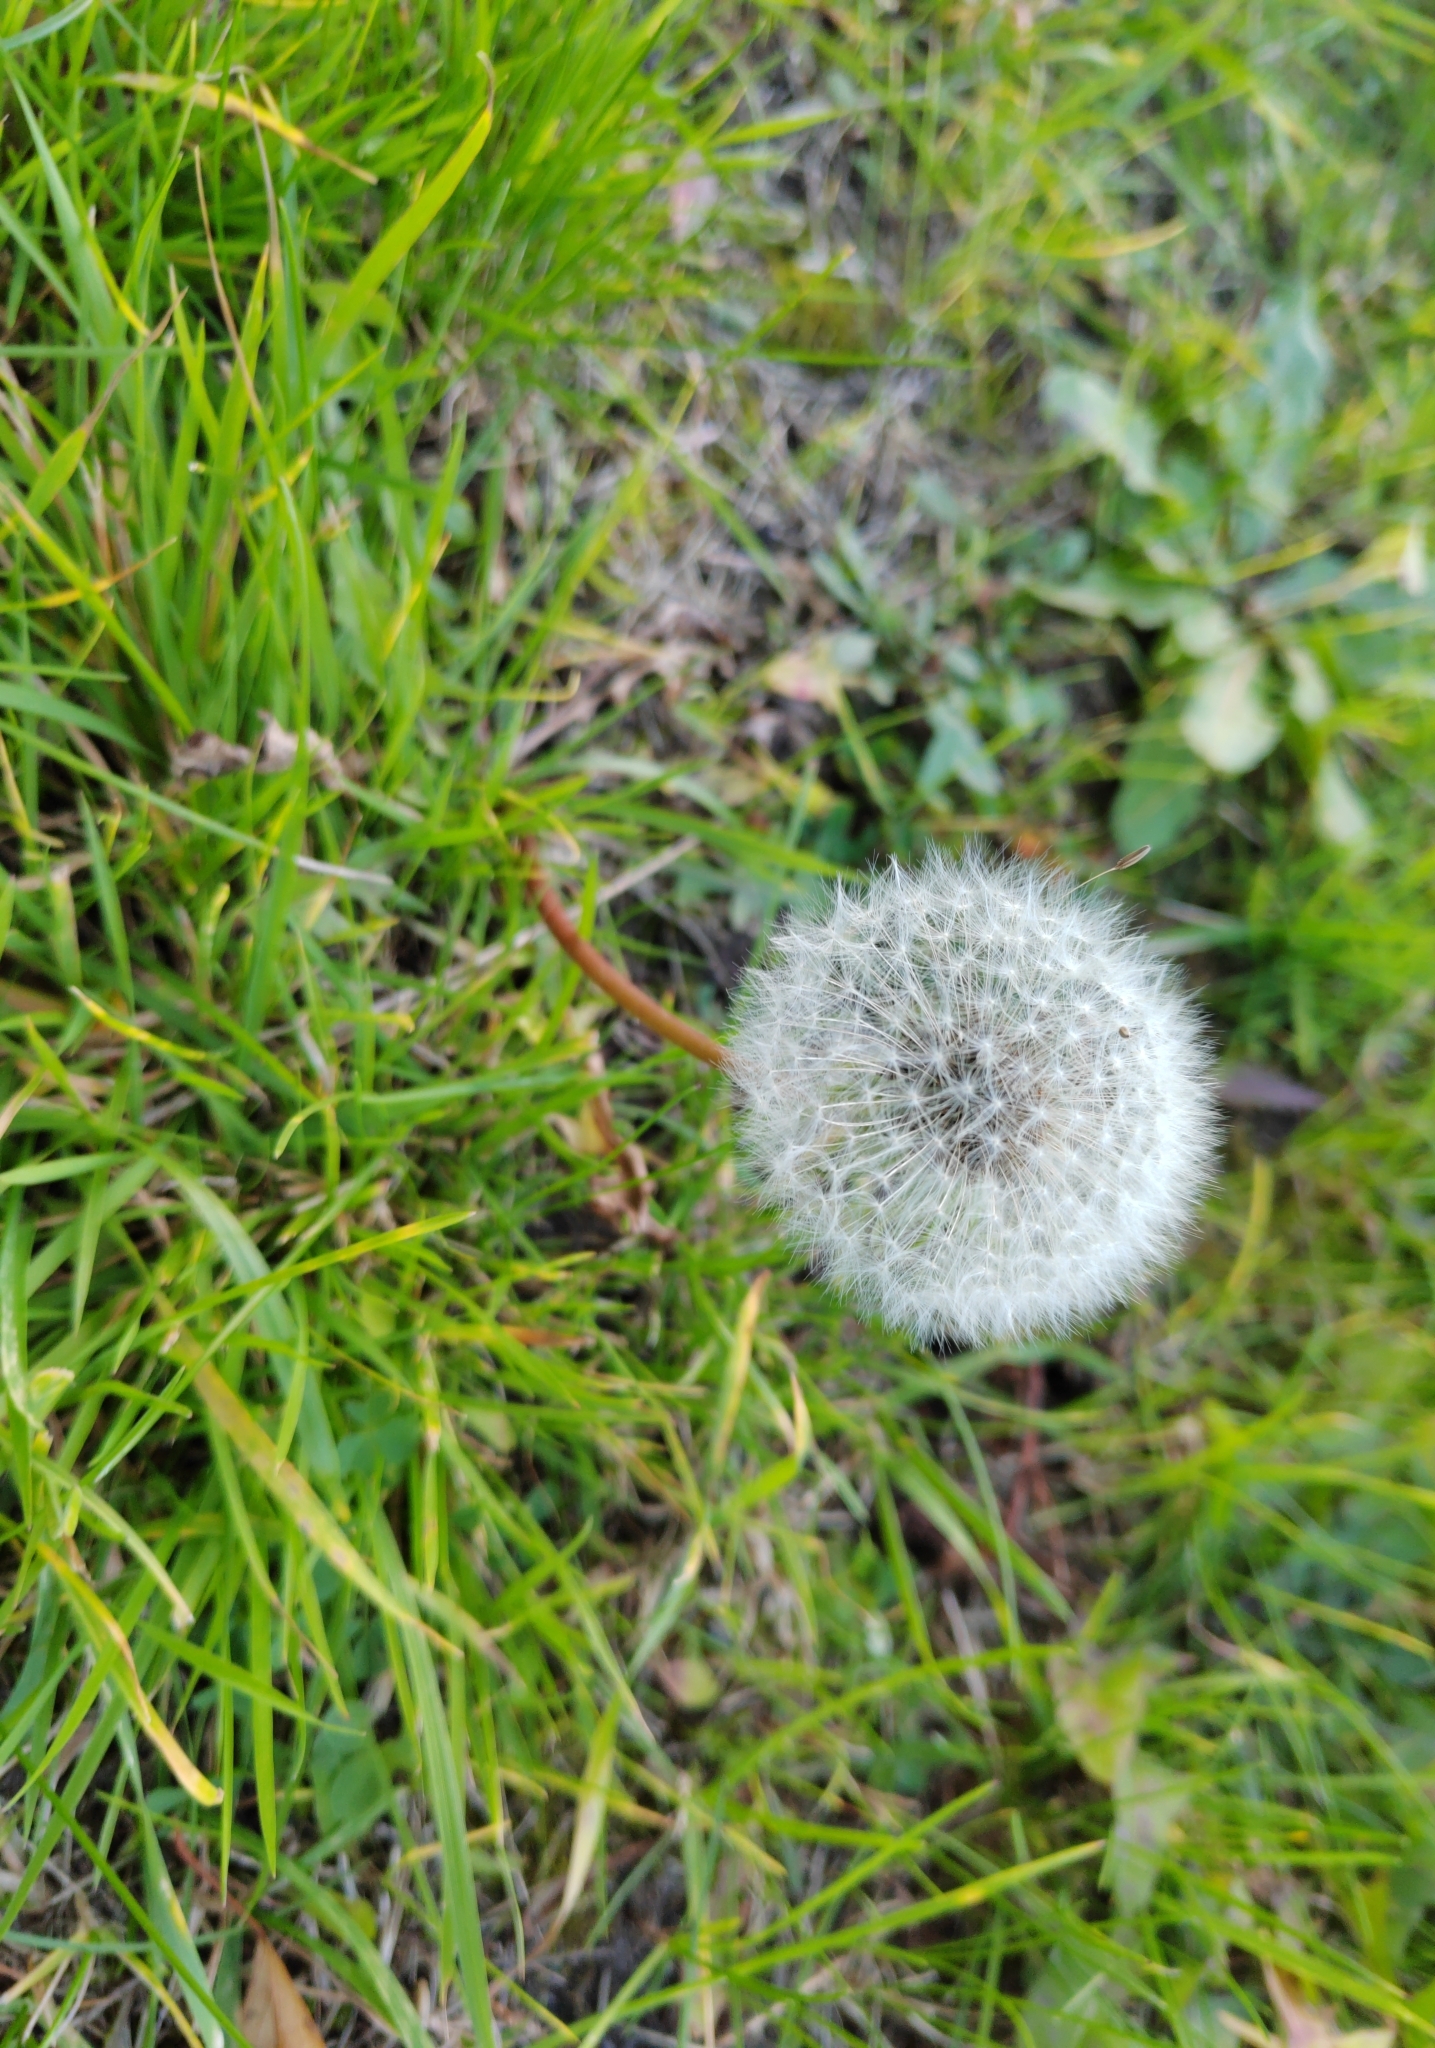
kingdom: Plantae
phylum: Tracheophyta
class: Magnoliopsida
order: Asterales
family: Asteraceae
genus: Taraxacum
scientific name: Taraxacum officinale
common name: Common dandelion
